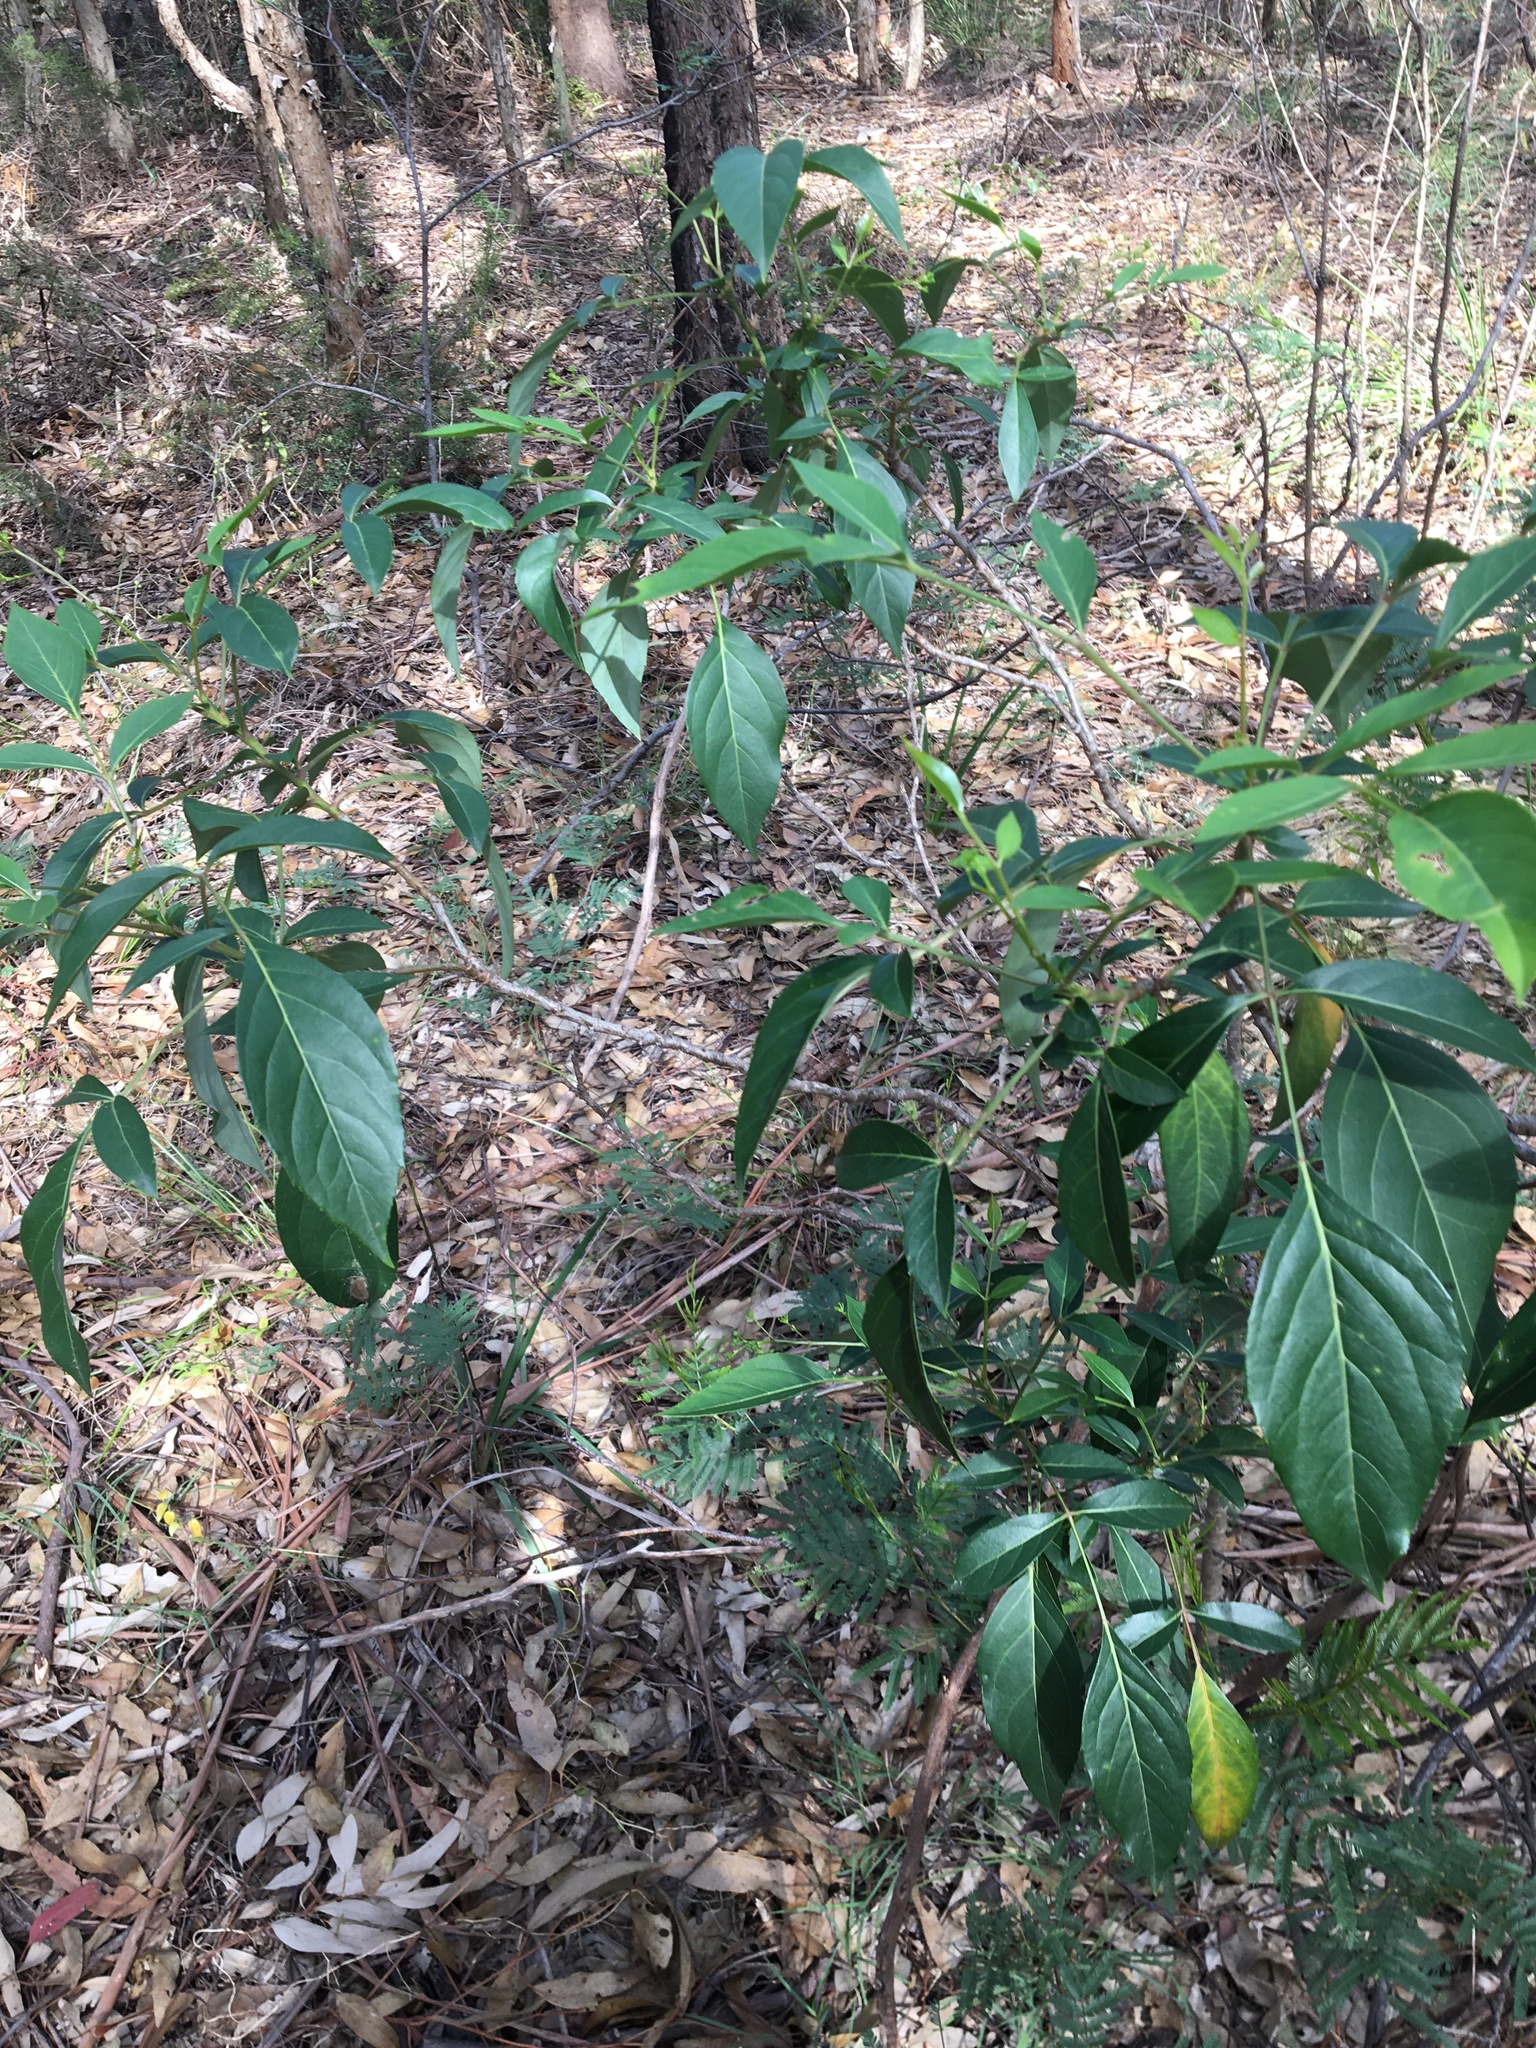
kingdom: Plantae
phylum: Tracheophyta
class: Magnoliopsida
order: Apiales
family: Araliaceae
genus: Polyscias
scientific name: Polyscias sambucifolia
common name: Elderberry-ash
